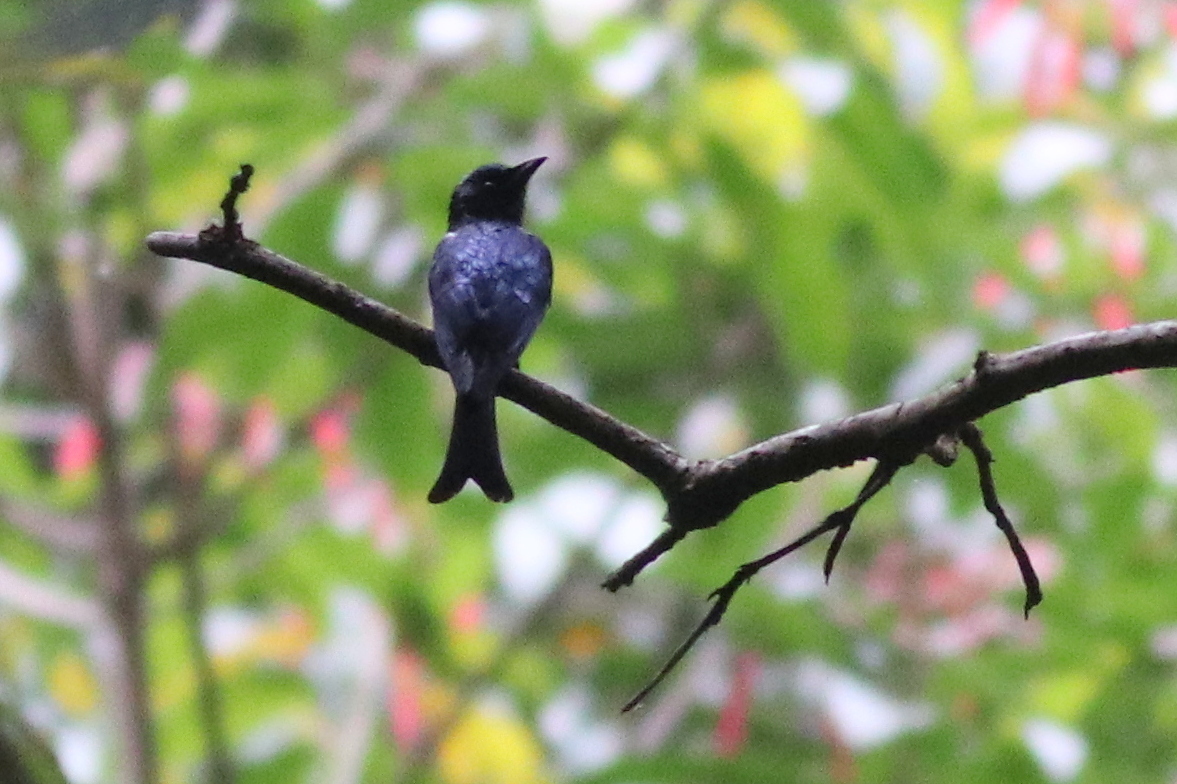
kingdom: Animalia
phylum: Chordata
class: Aves
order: Passeriformes
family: Dicruridae
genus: Dicrurus
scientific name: Dicrurus aeneus
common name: Bronzed drongo
